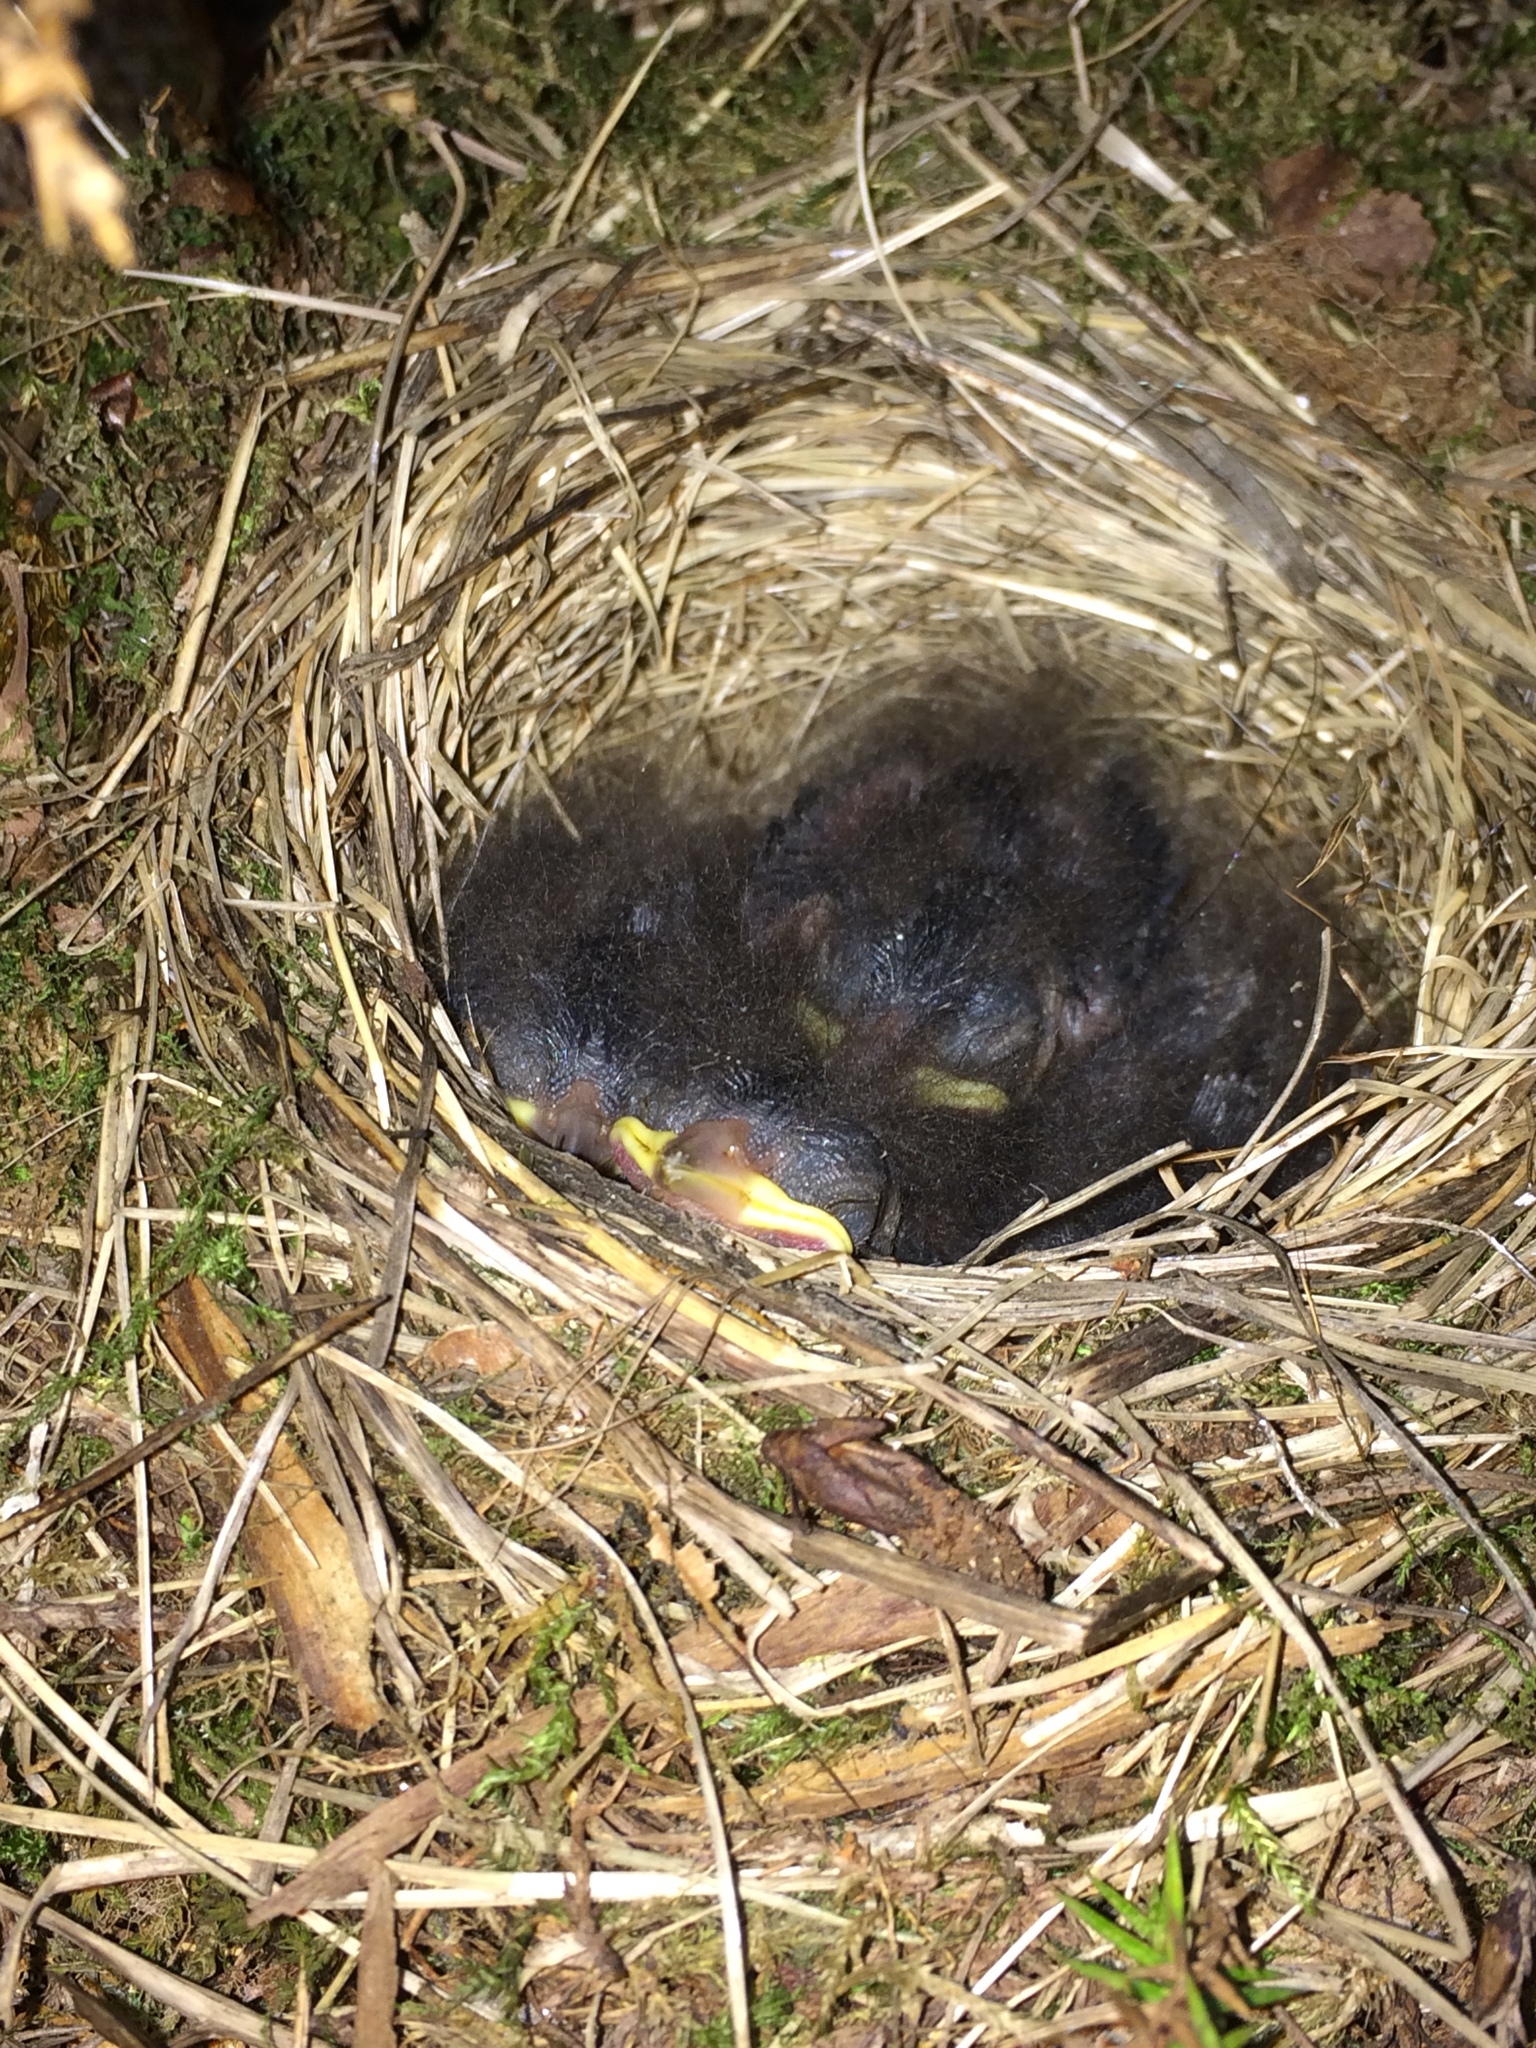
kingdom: Animalia
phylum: Chordata
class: Aves
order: Passeriformes
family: Passerellidae
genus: Junco
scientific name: Junco hyemalis
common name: Dark-eyed junco
